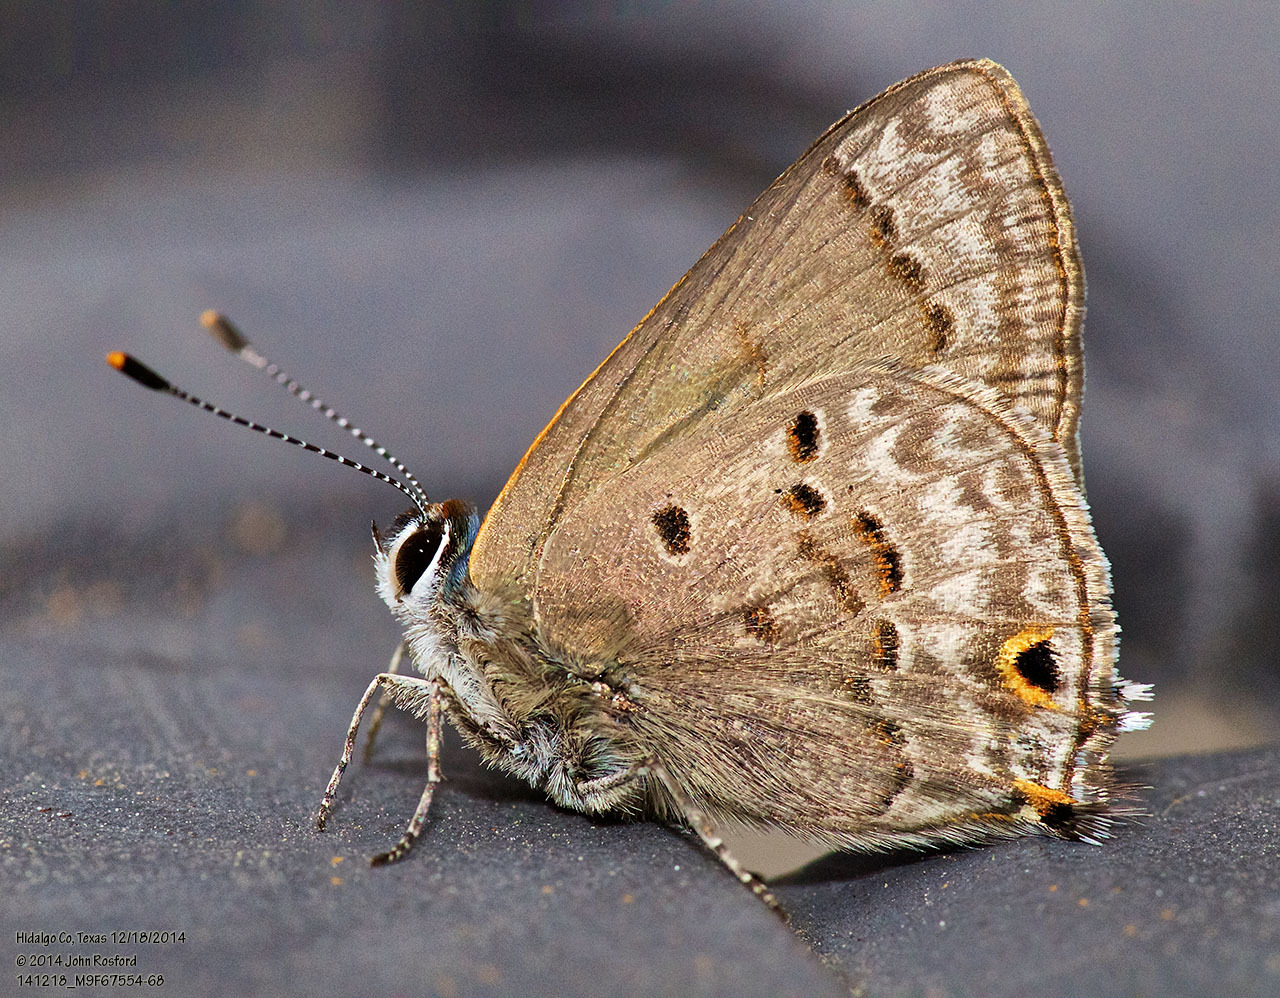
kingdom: Animalia
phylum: Arthropoda
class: Insecta
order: Lepidoptera
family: Lycaenidae
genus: Callicista
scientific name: Callicista columella
